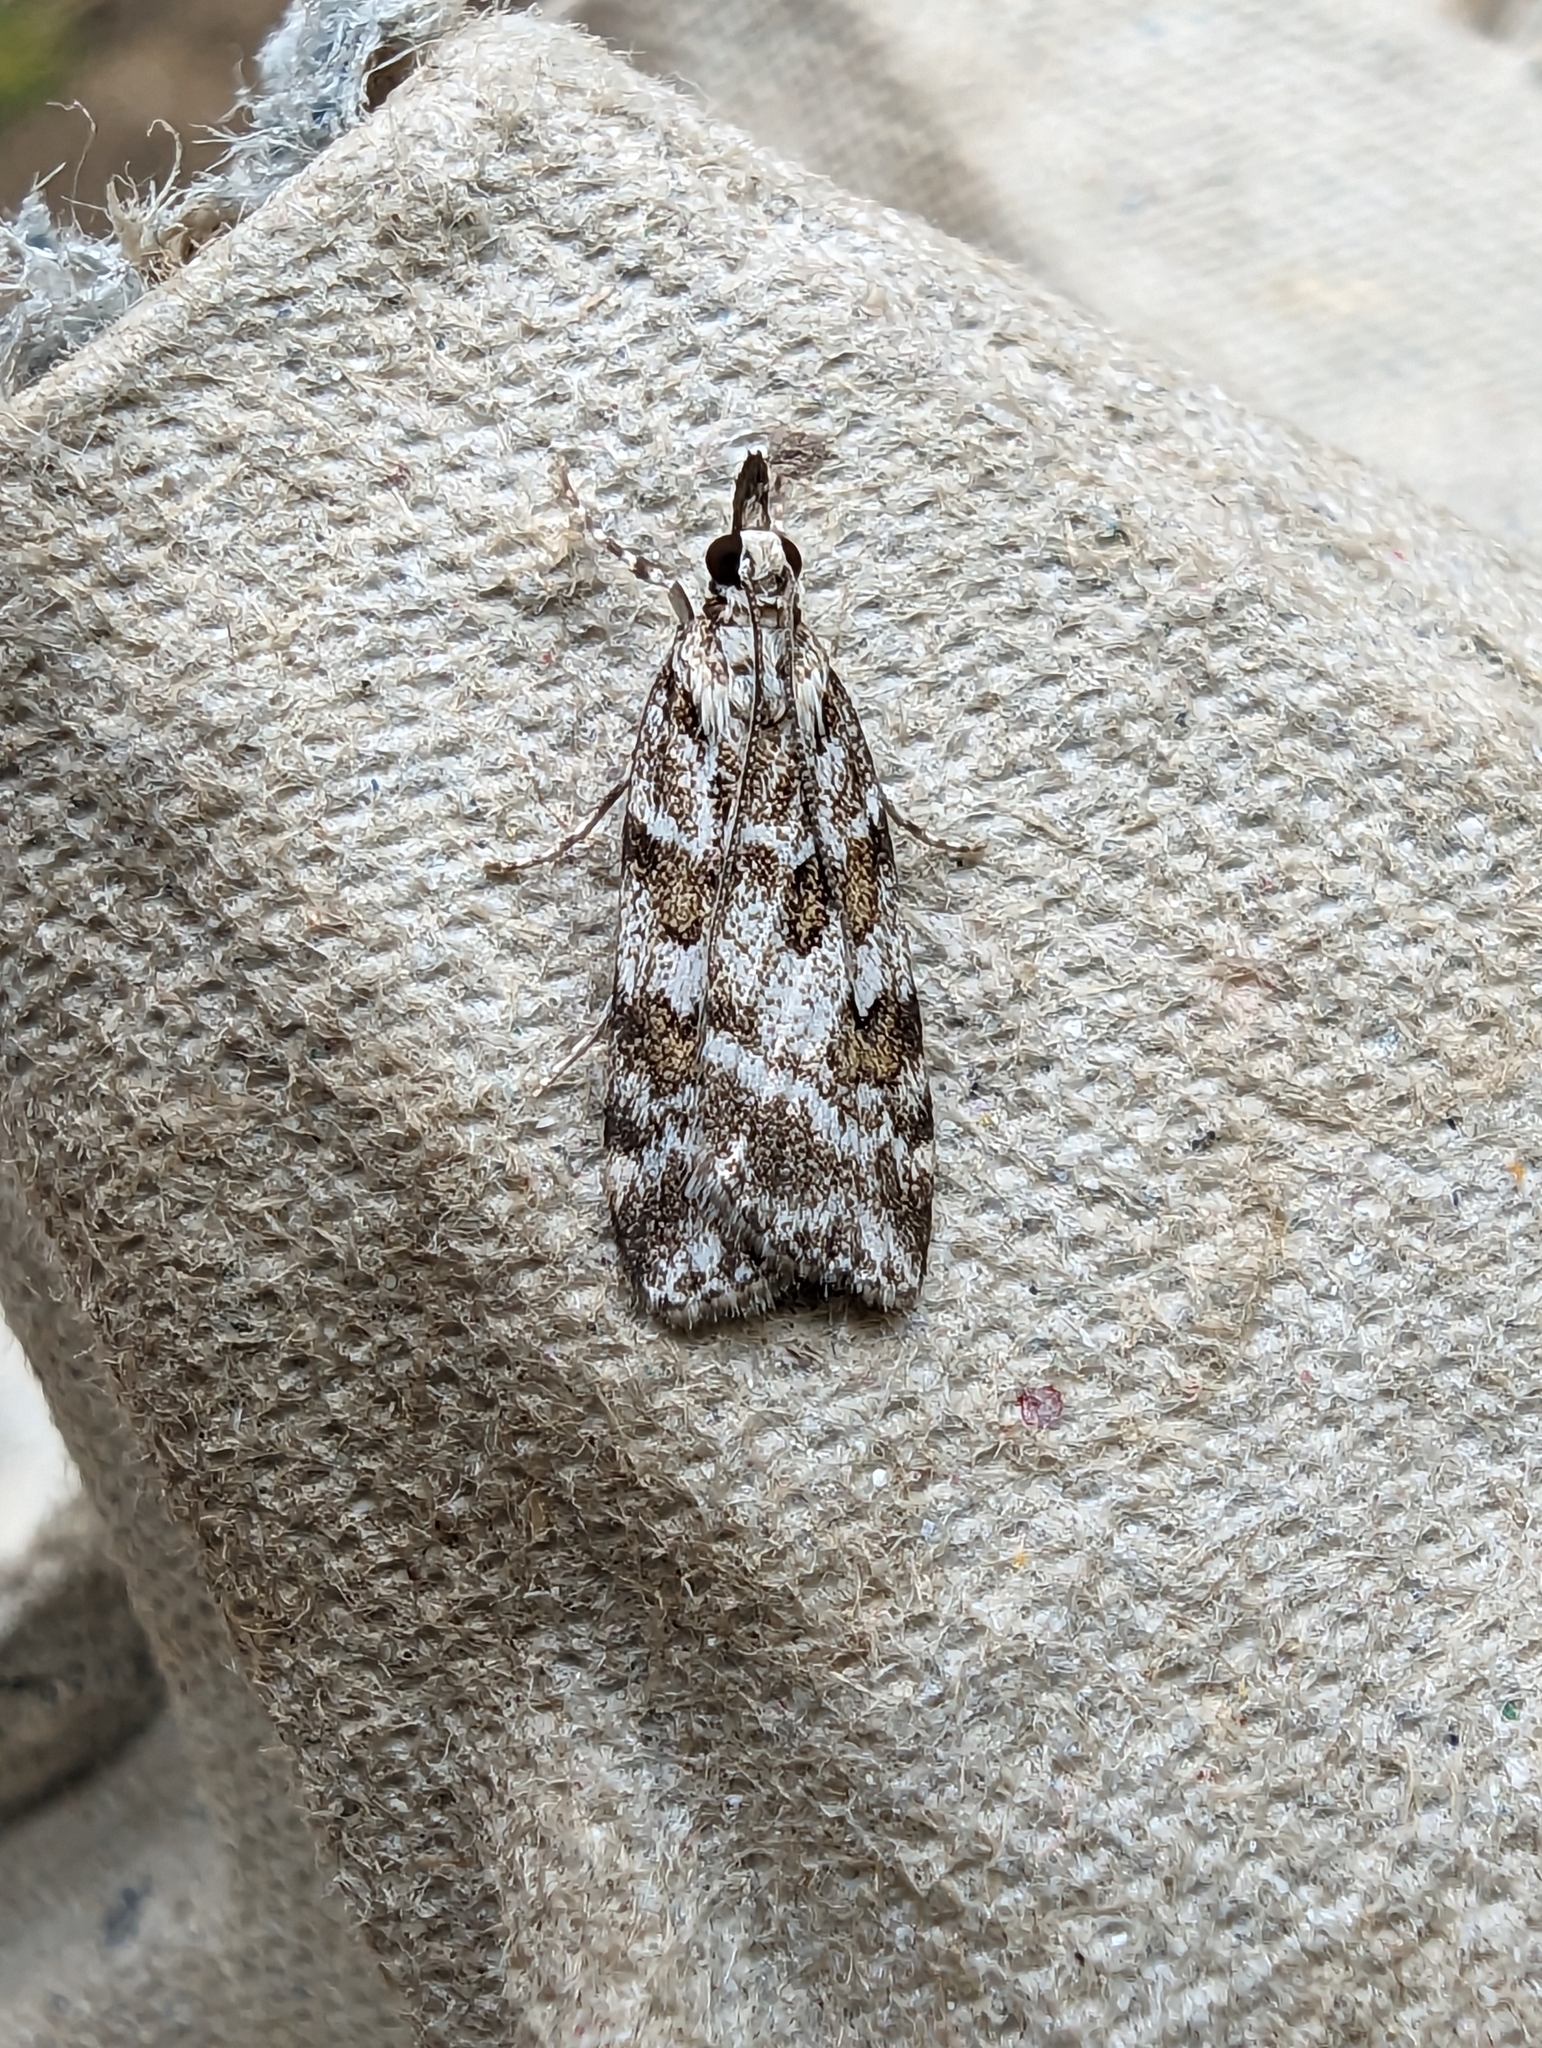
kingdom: Animalia
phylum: Arthropoda
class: Insecta
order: Lepidoptera
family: Crambidae
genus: Scoparia
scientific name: Scoparia pyralella
